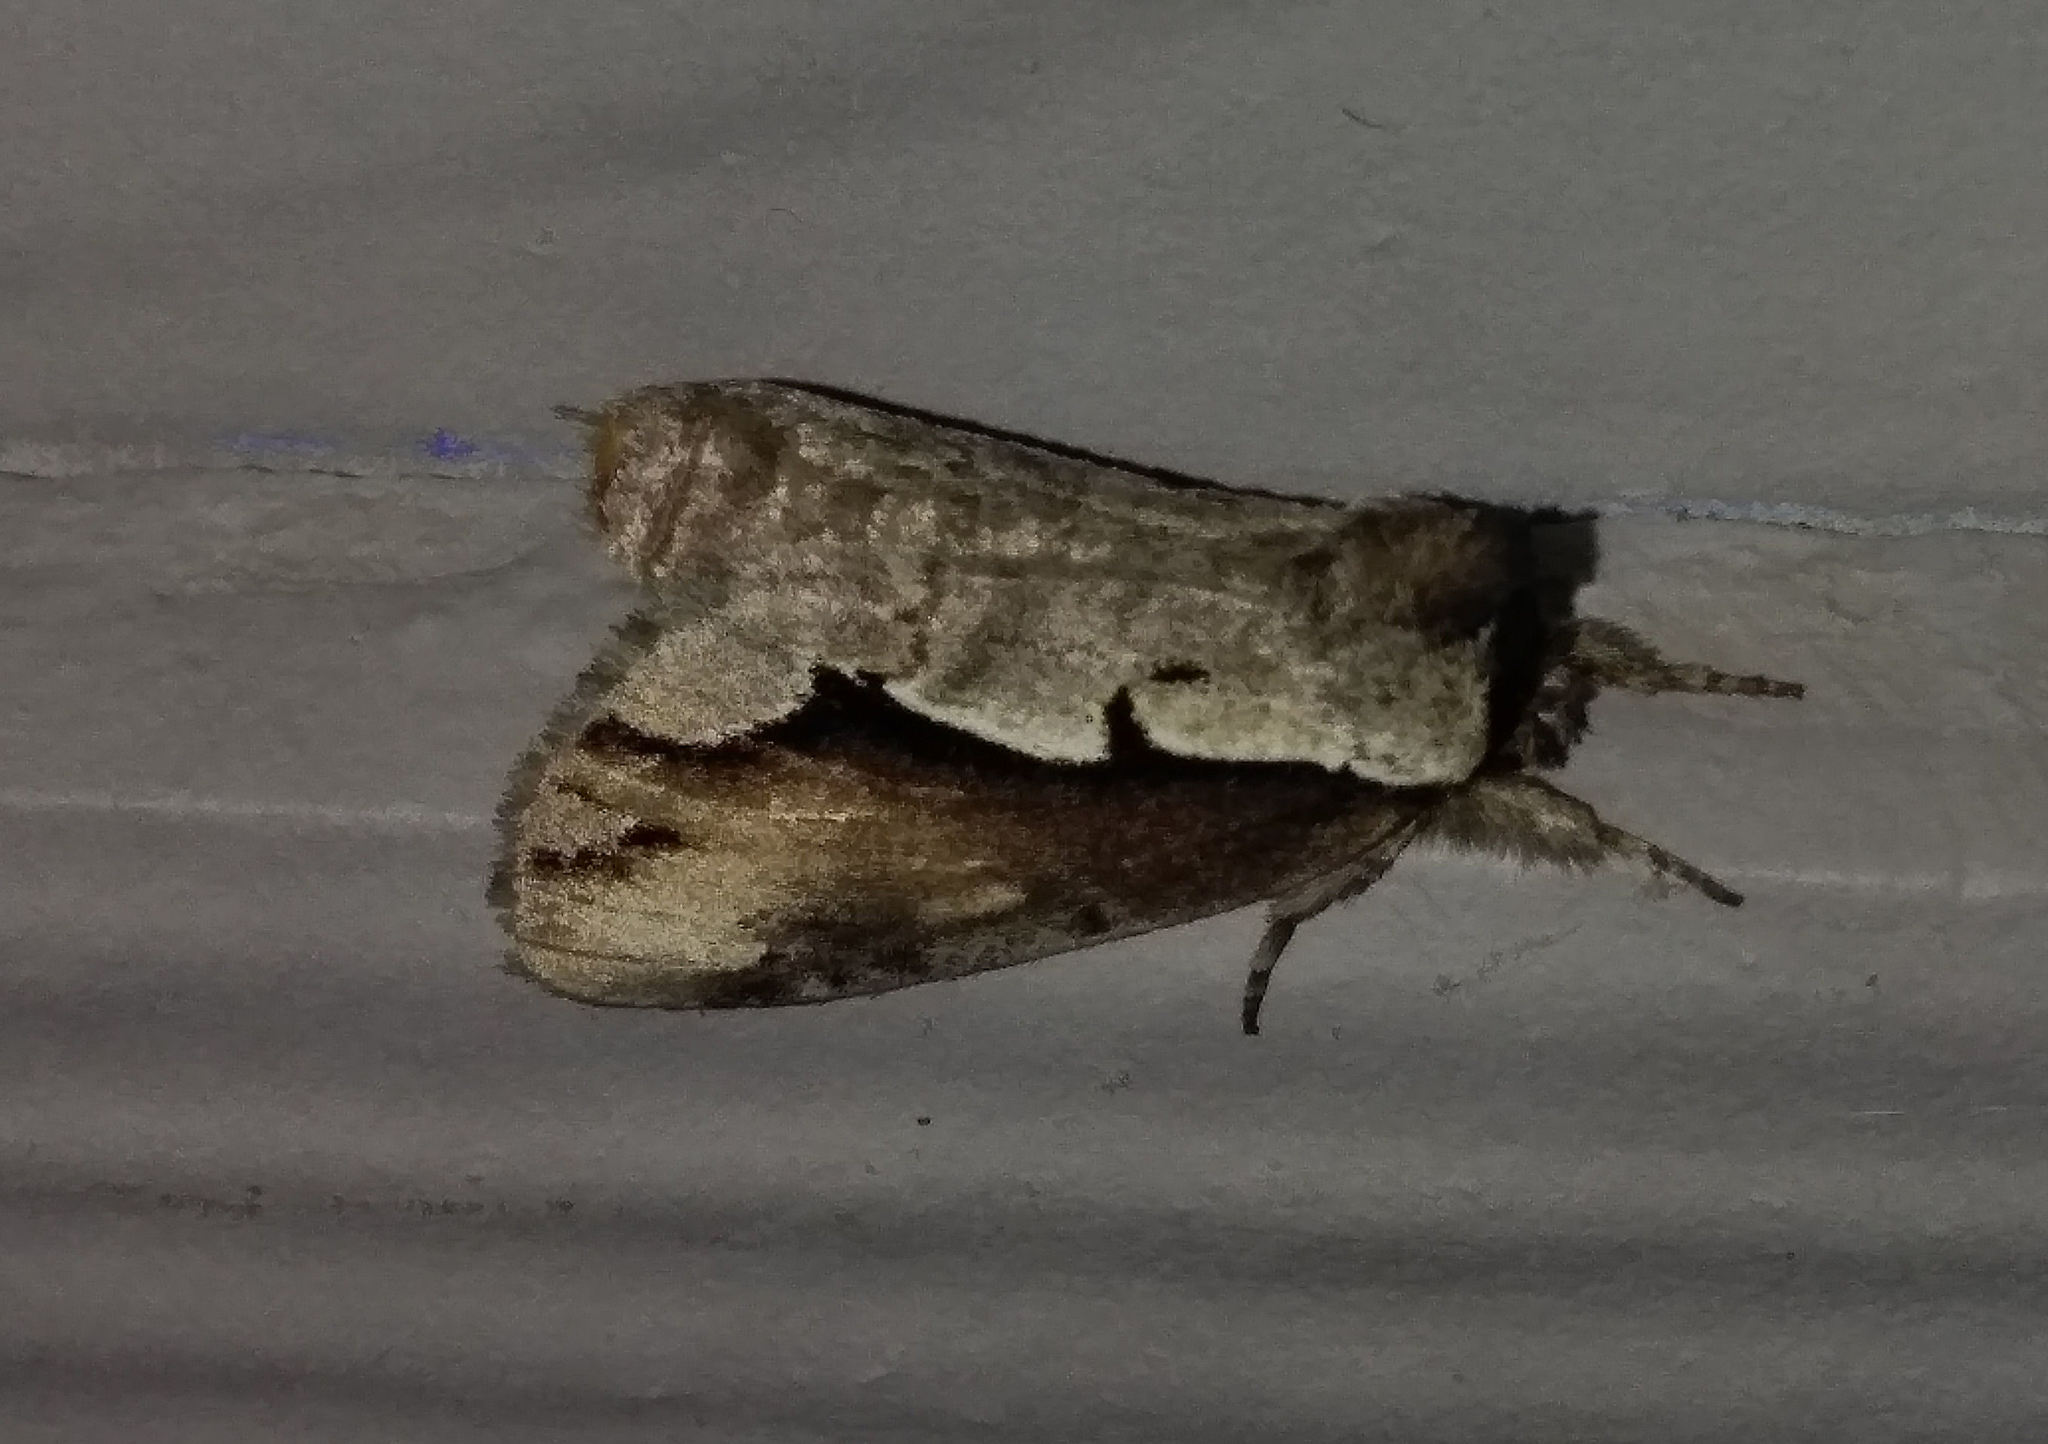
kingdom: Animalia
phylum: Arthropoda
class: Insecta
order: Lepidoptera
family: Notodontidae
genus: Nerice
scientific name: Nerice bidentata
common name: Double-toothed prominent
